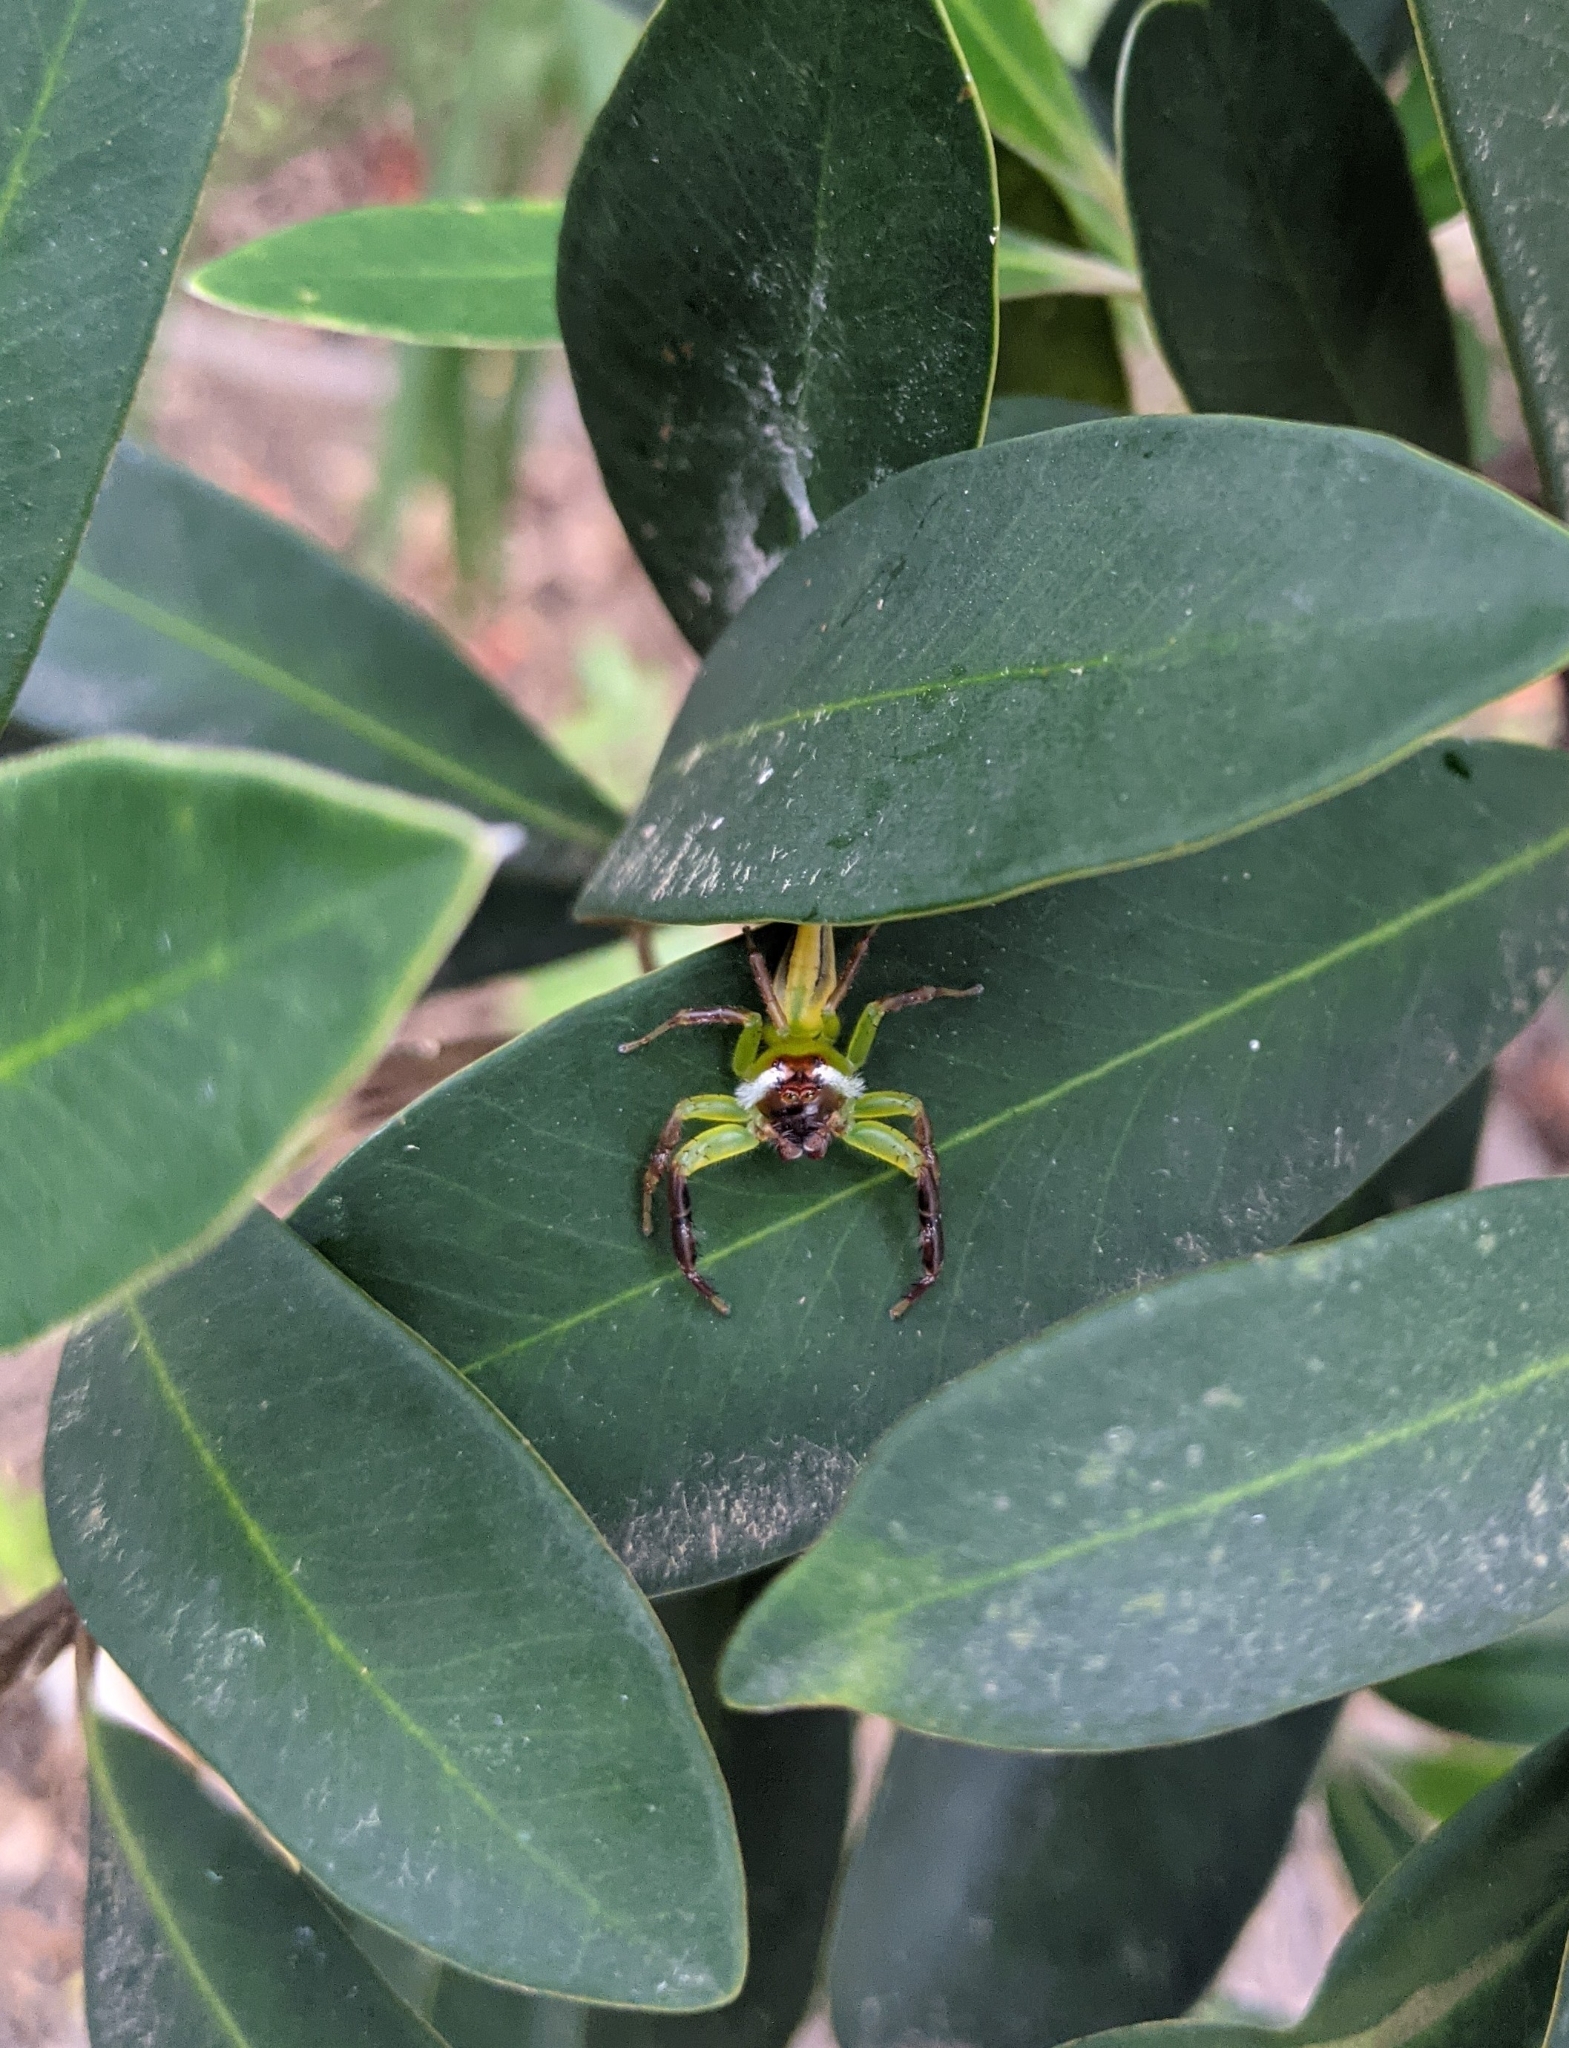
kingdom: Animalia
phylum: Arthropoda
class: Arachnida
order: Araneae
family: Salticidae
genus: Mopsus
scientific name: Mopsus mormon
